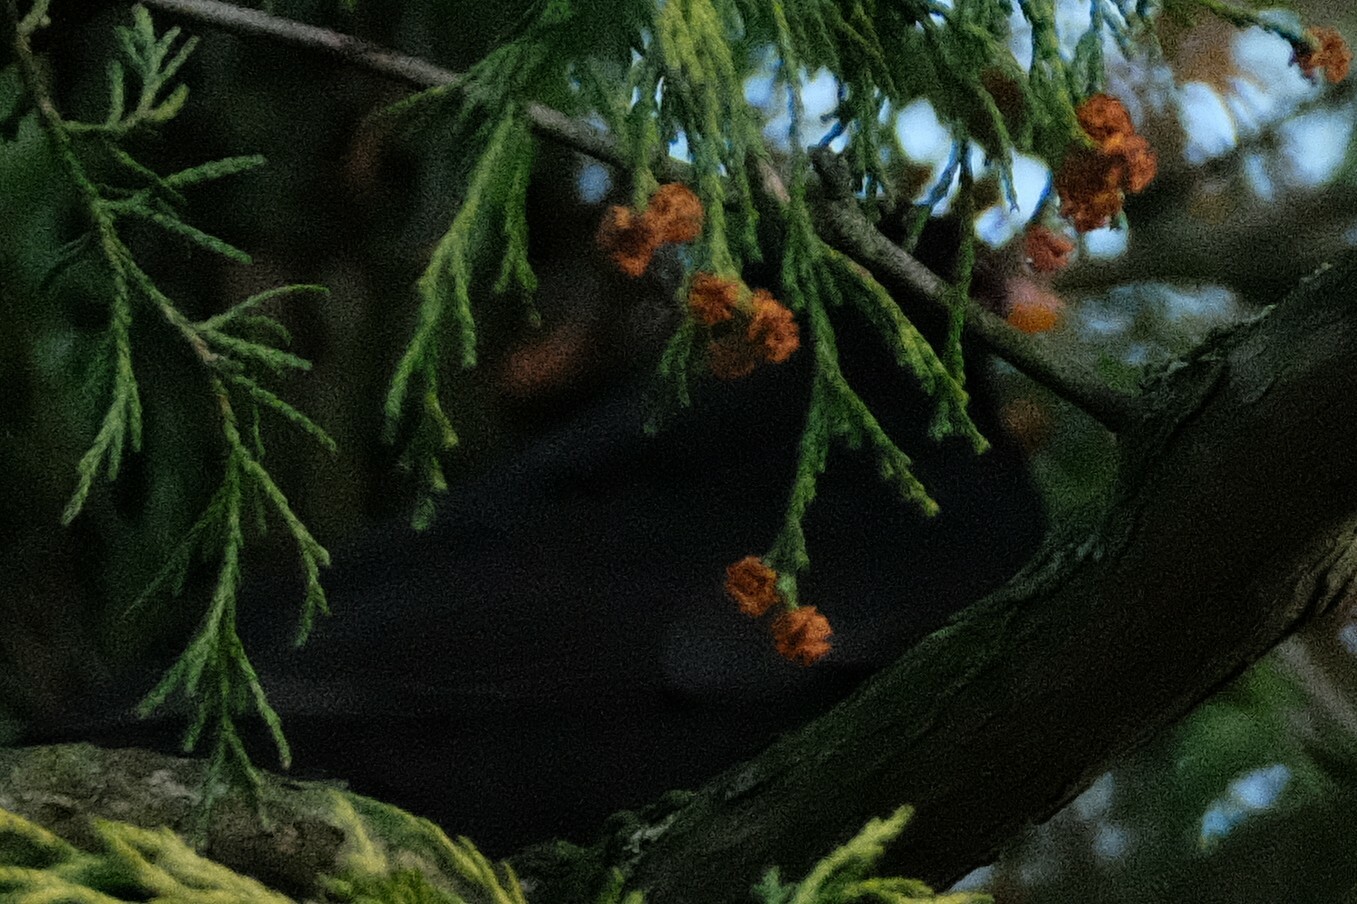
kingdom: Animalia
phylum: Chordata
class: Aves
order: Passeriformes
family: Turdidae
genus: Turdus
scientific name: Turdus merula
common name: Common blackbird
